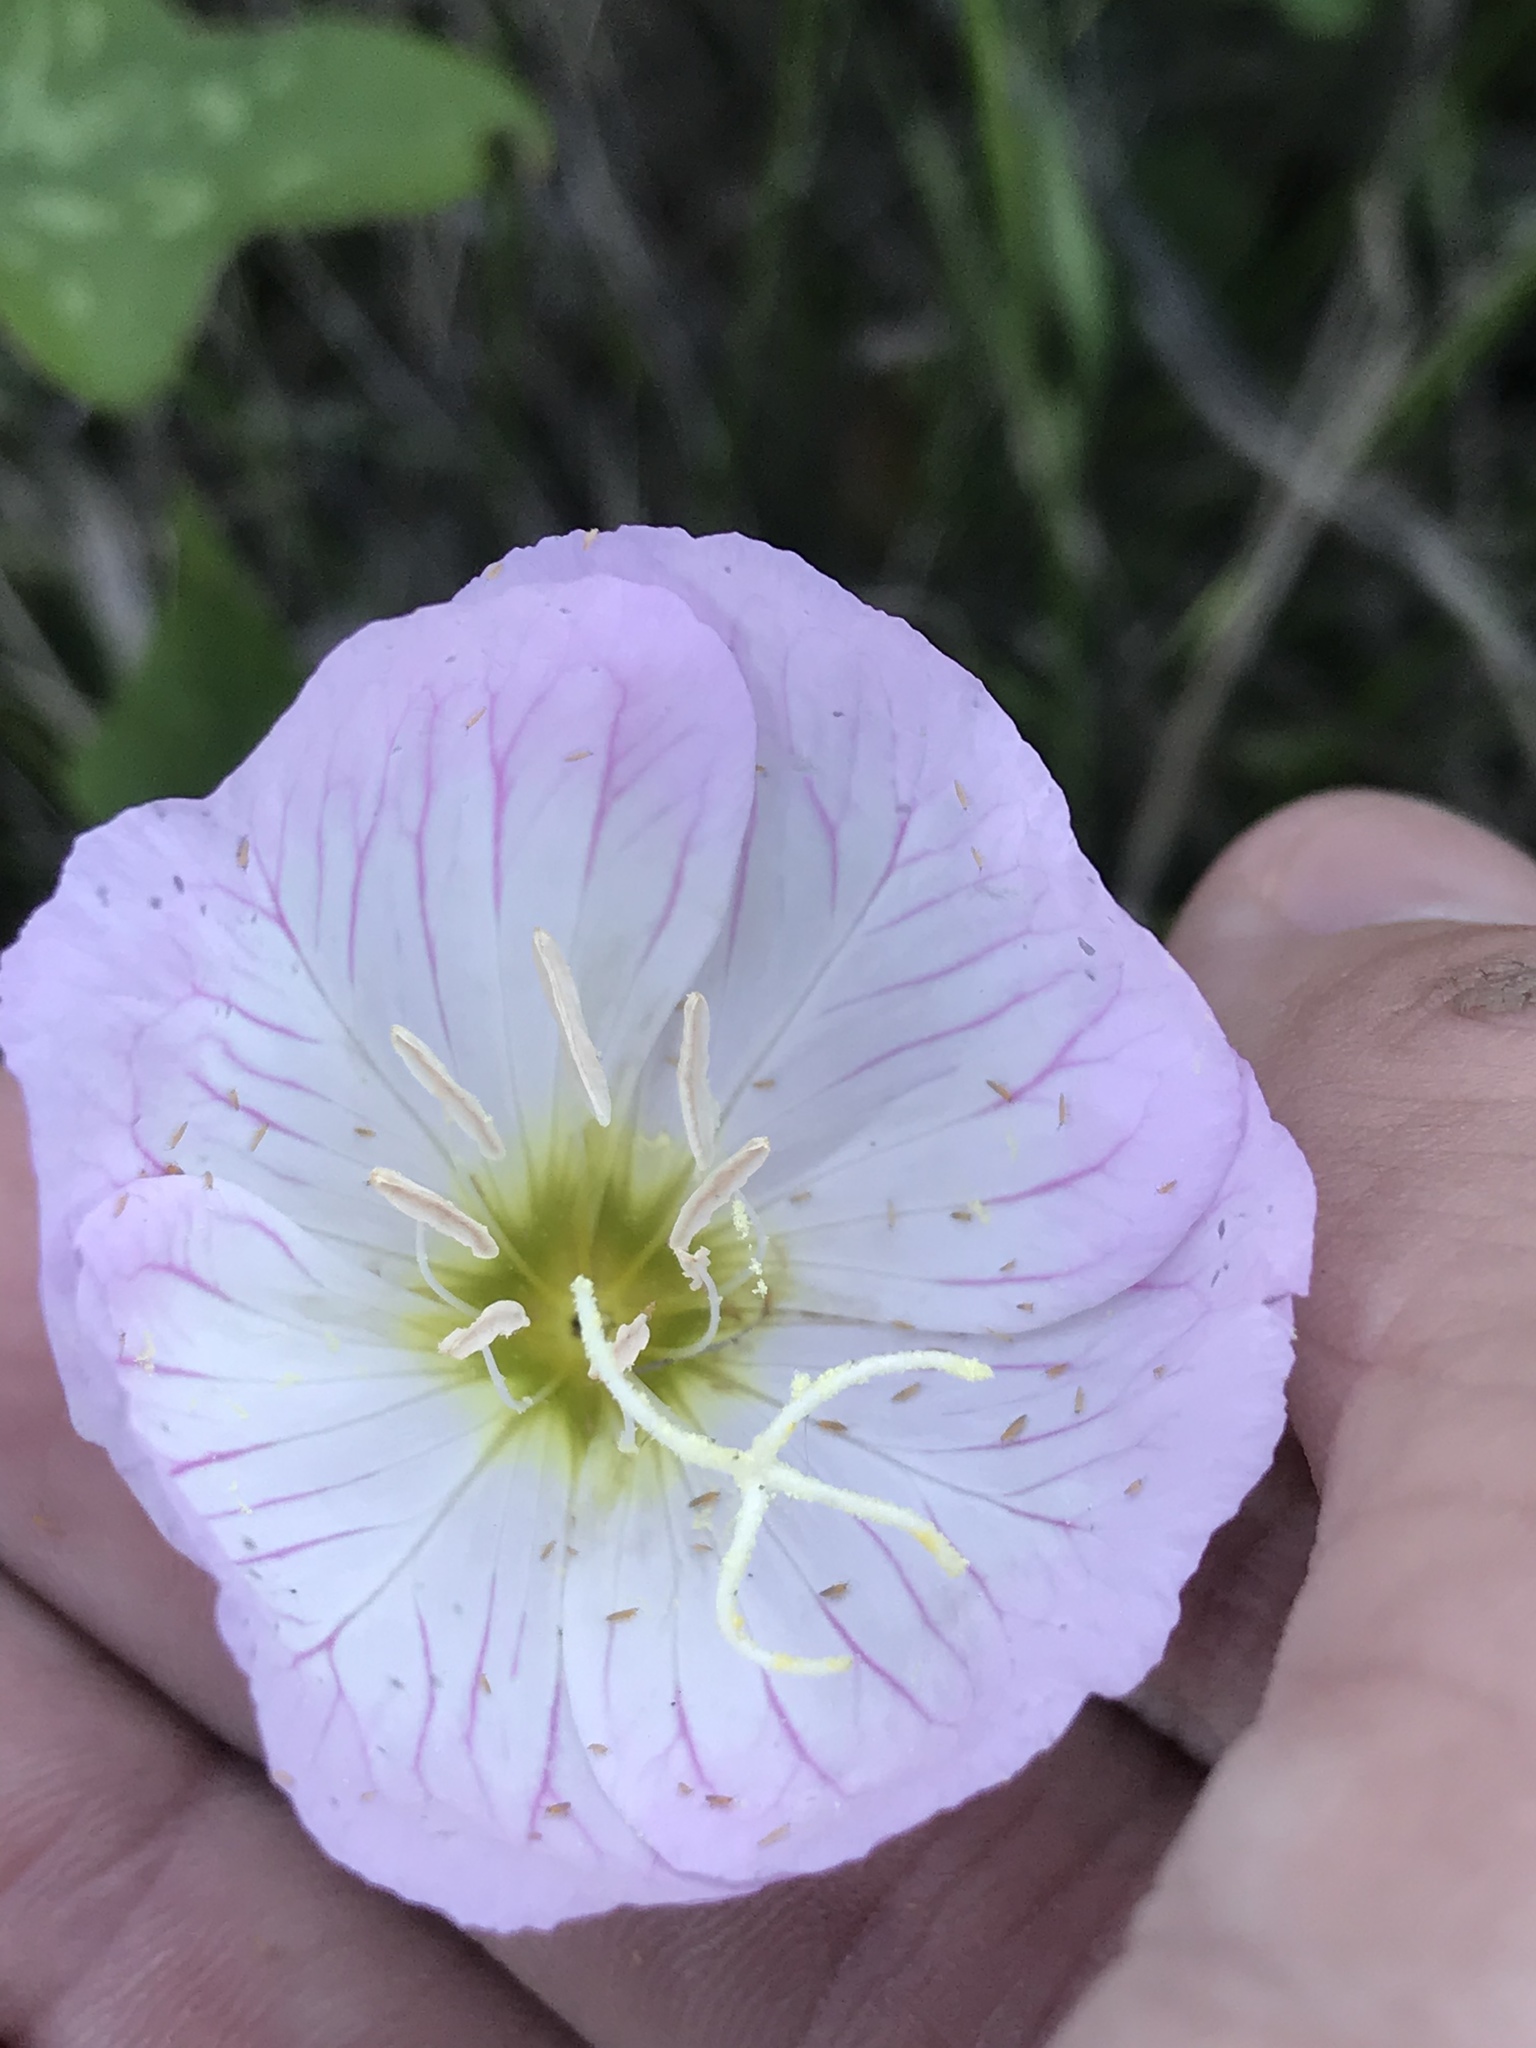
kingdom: Plantae
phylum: Tracheophyta
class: Magnoliopsida
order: Myrtales
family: Onagraceae
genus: Oenothera
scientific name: Oenothera speciosa
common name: White evening-primrose
